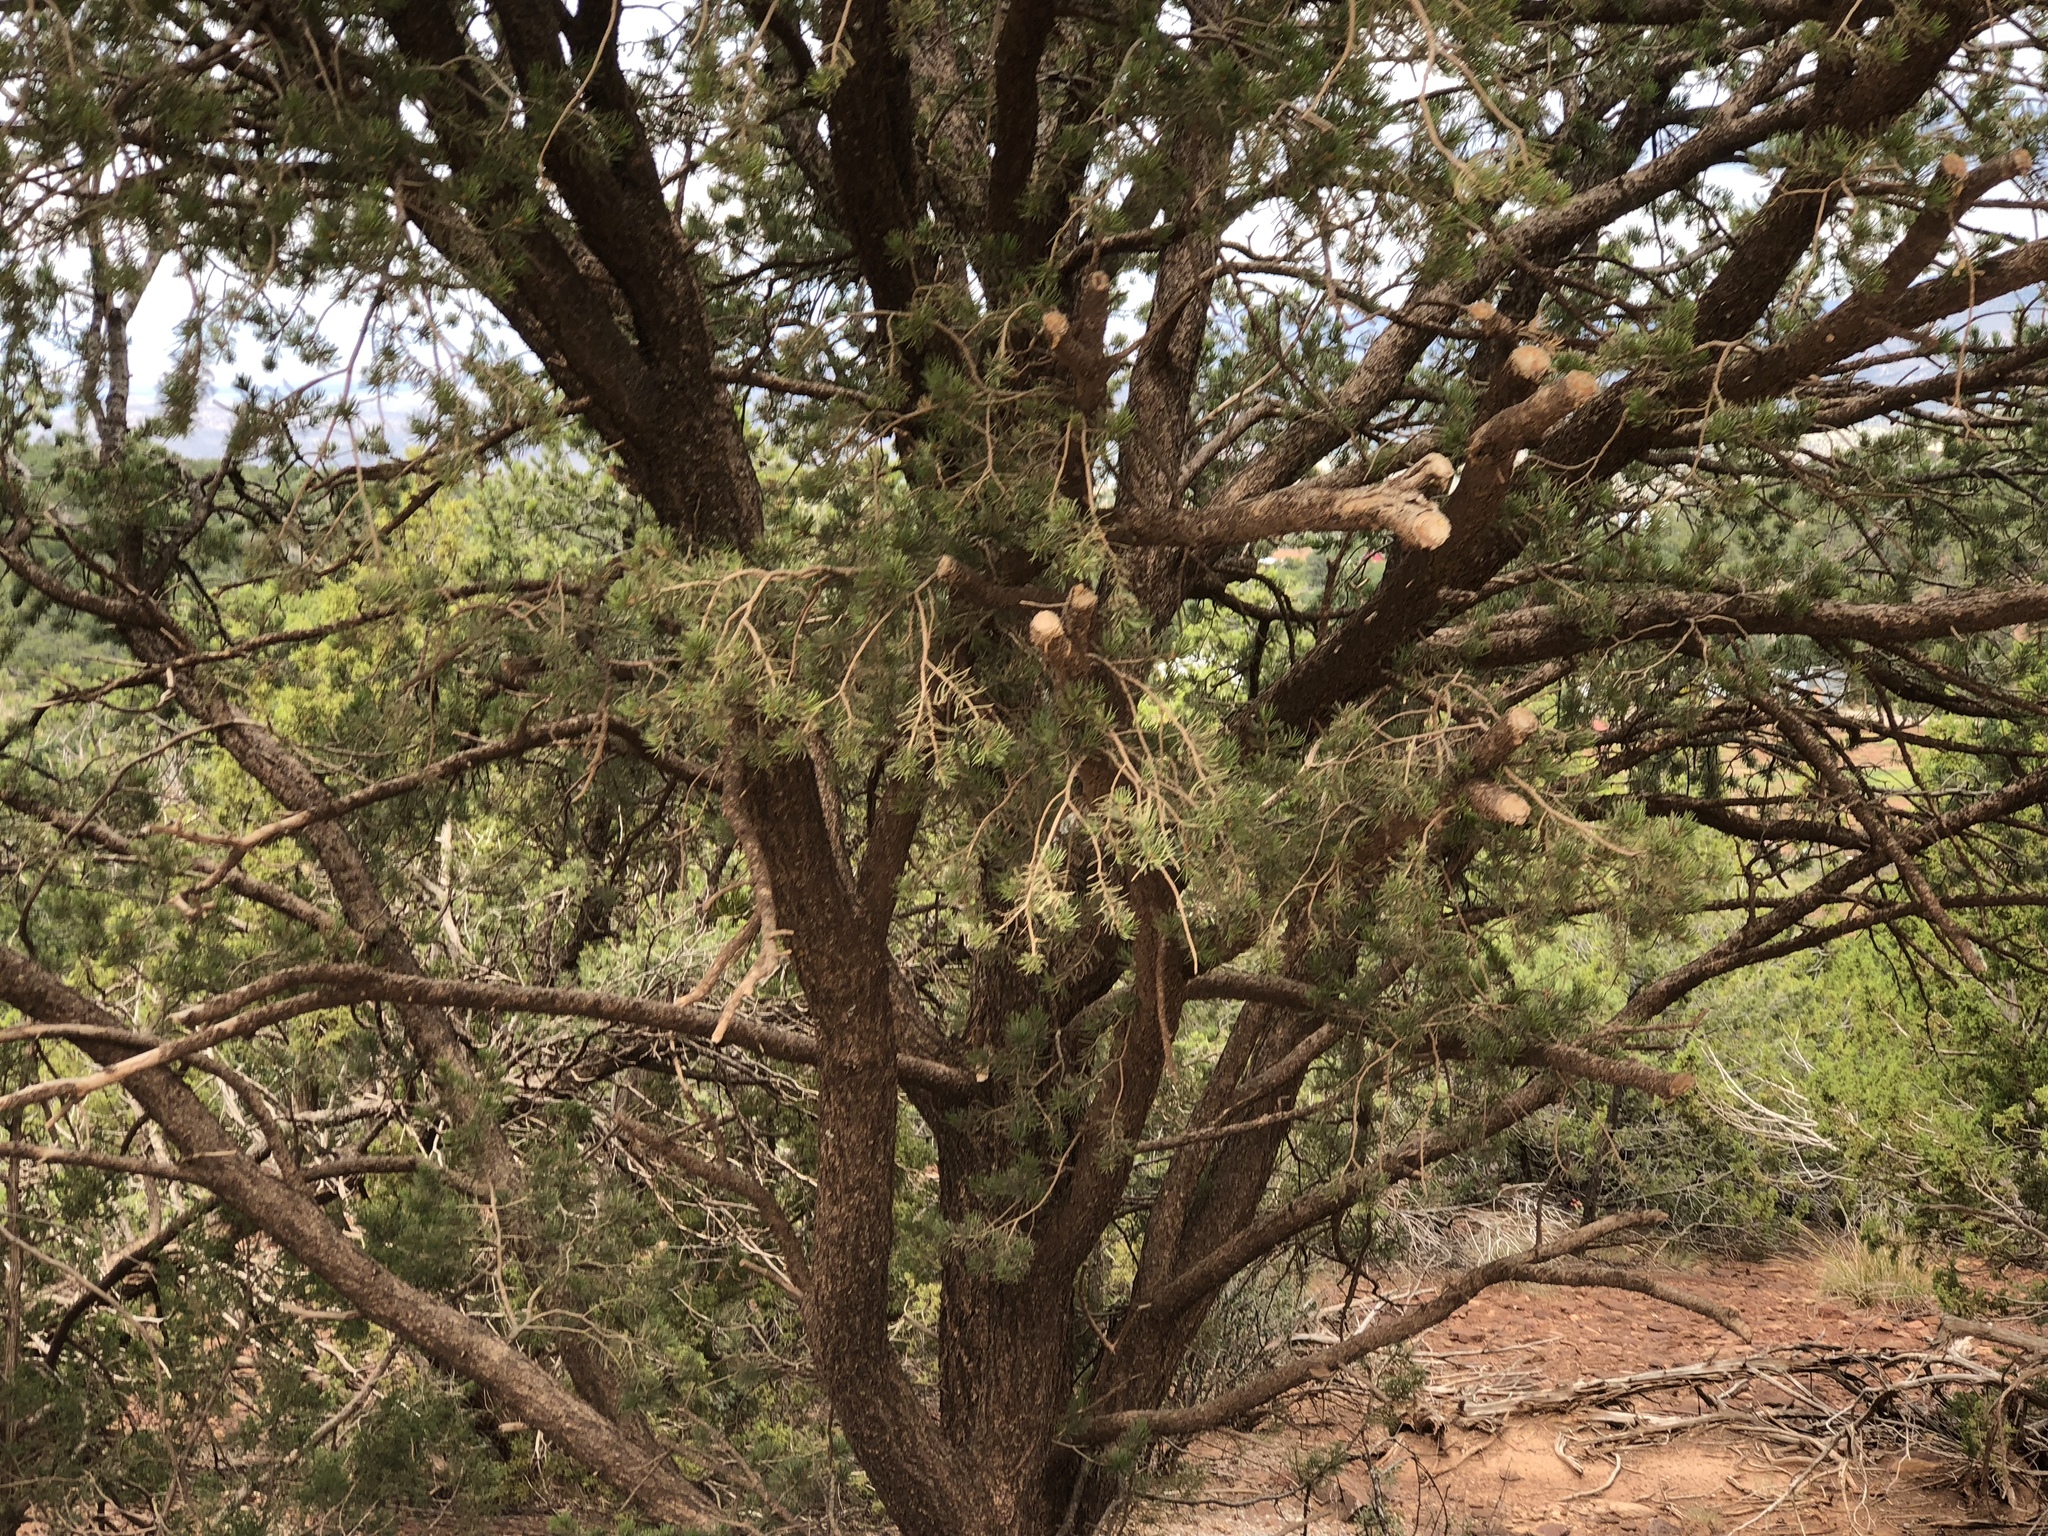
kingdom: Plantae
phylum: Tracheophyta
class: Pinopsida
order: Pinales
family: Pinaceae
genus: Pinus
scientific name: Pinus edulis
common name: Colorado pinyon
